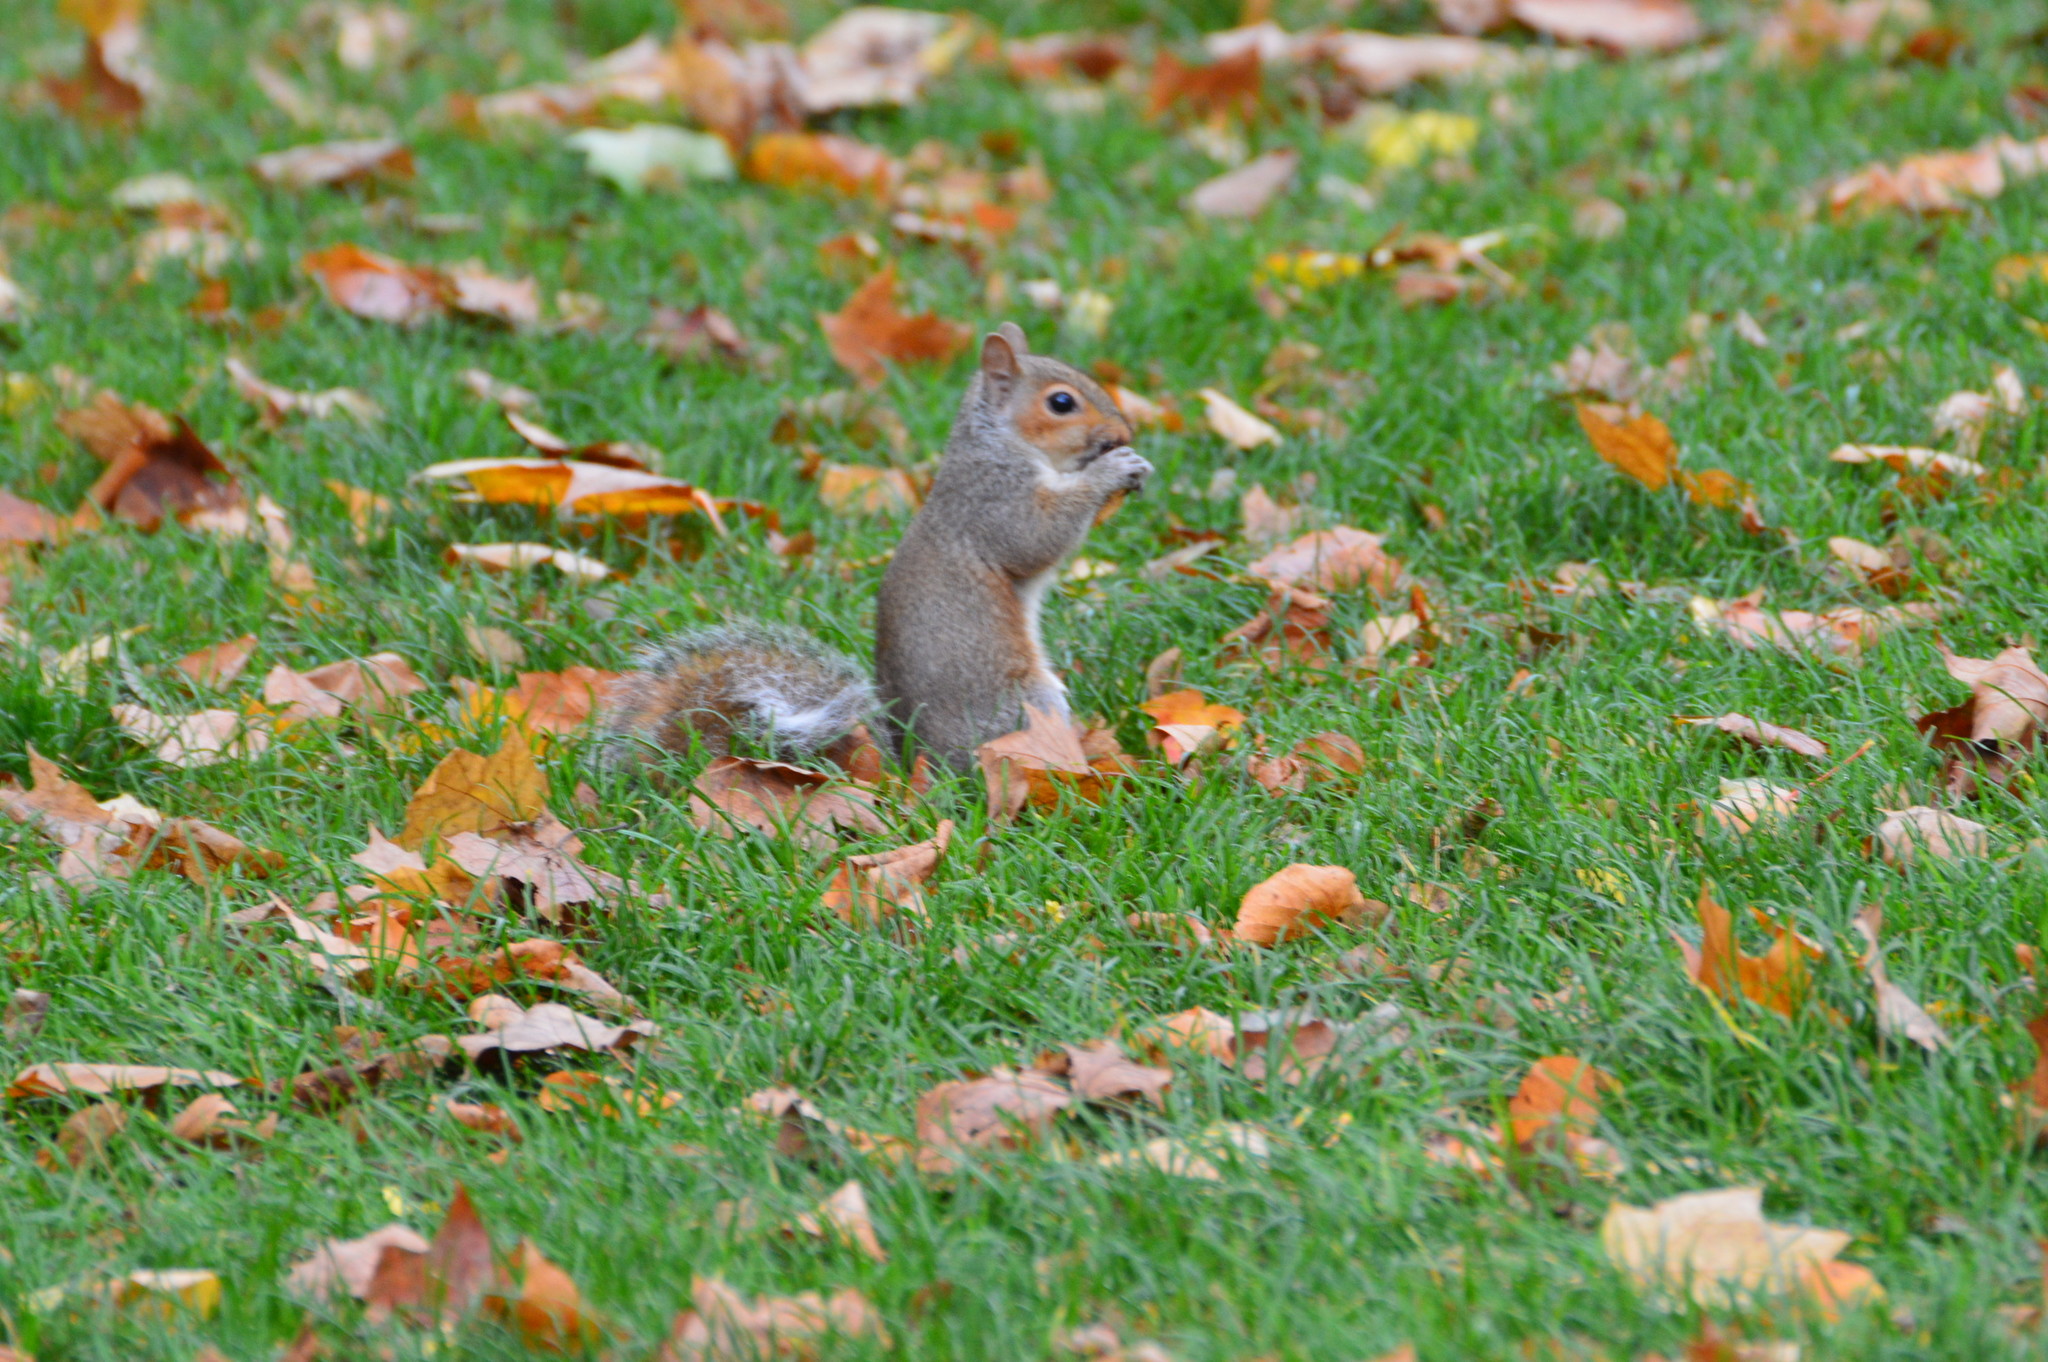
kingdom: Animalia
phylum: Chordata
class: Mammalia
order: Rodentia
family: Sciuridae
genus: Sciurus
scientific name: Sciurus carolinensis
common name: Eastern gray squirrel
